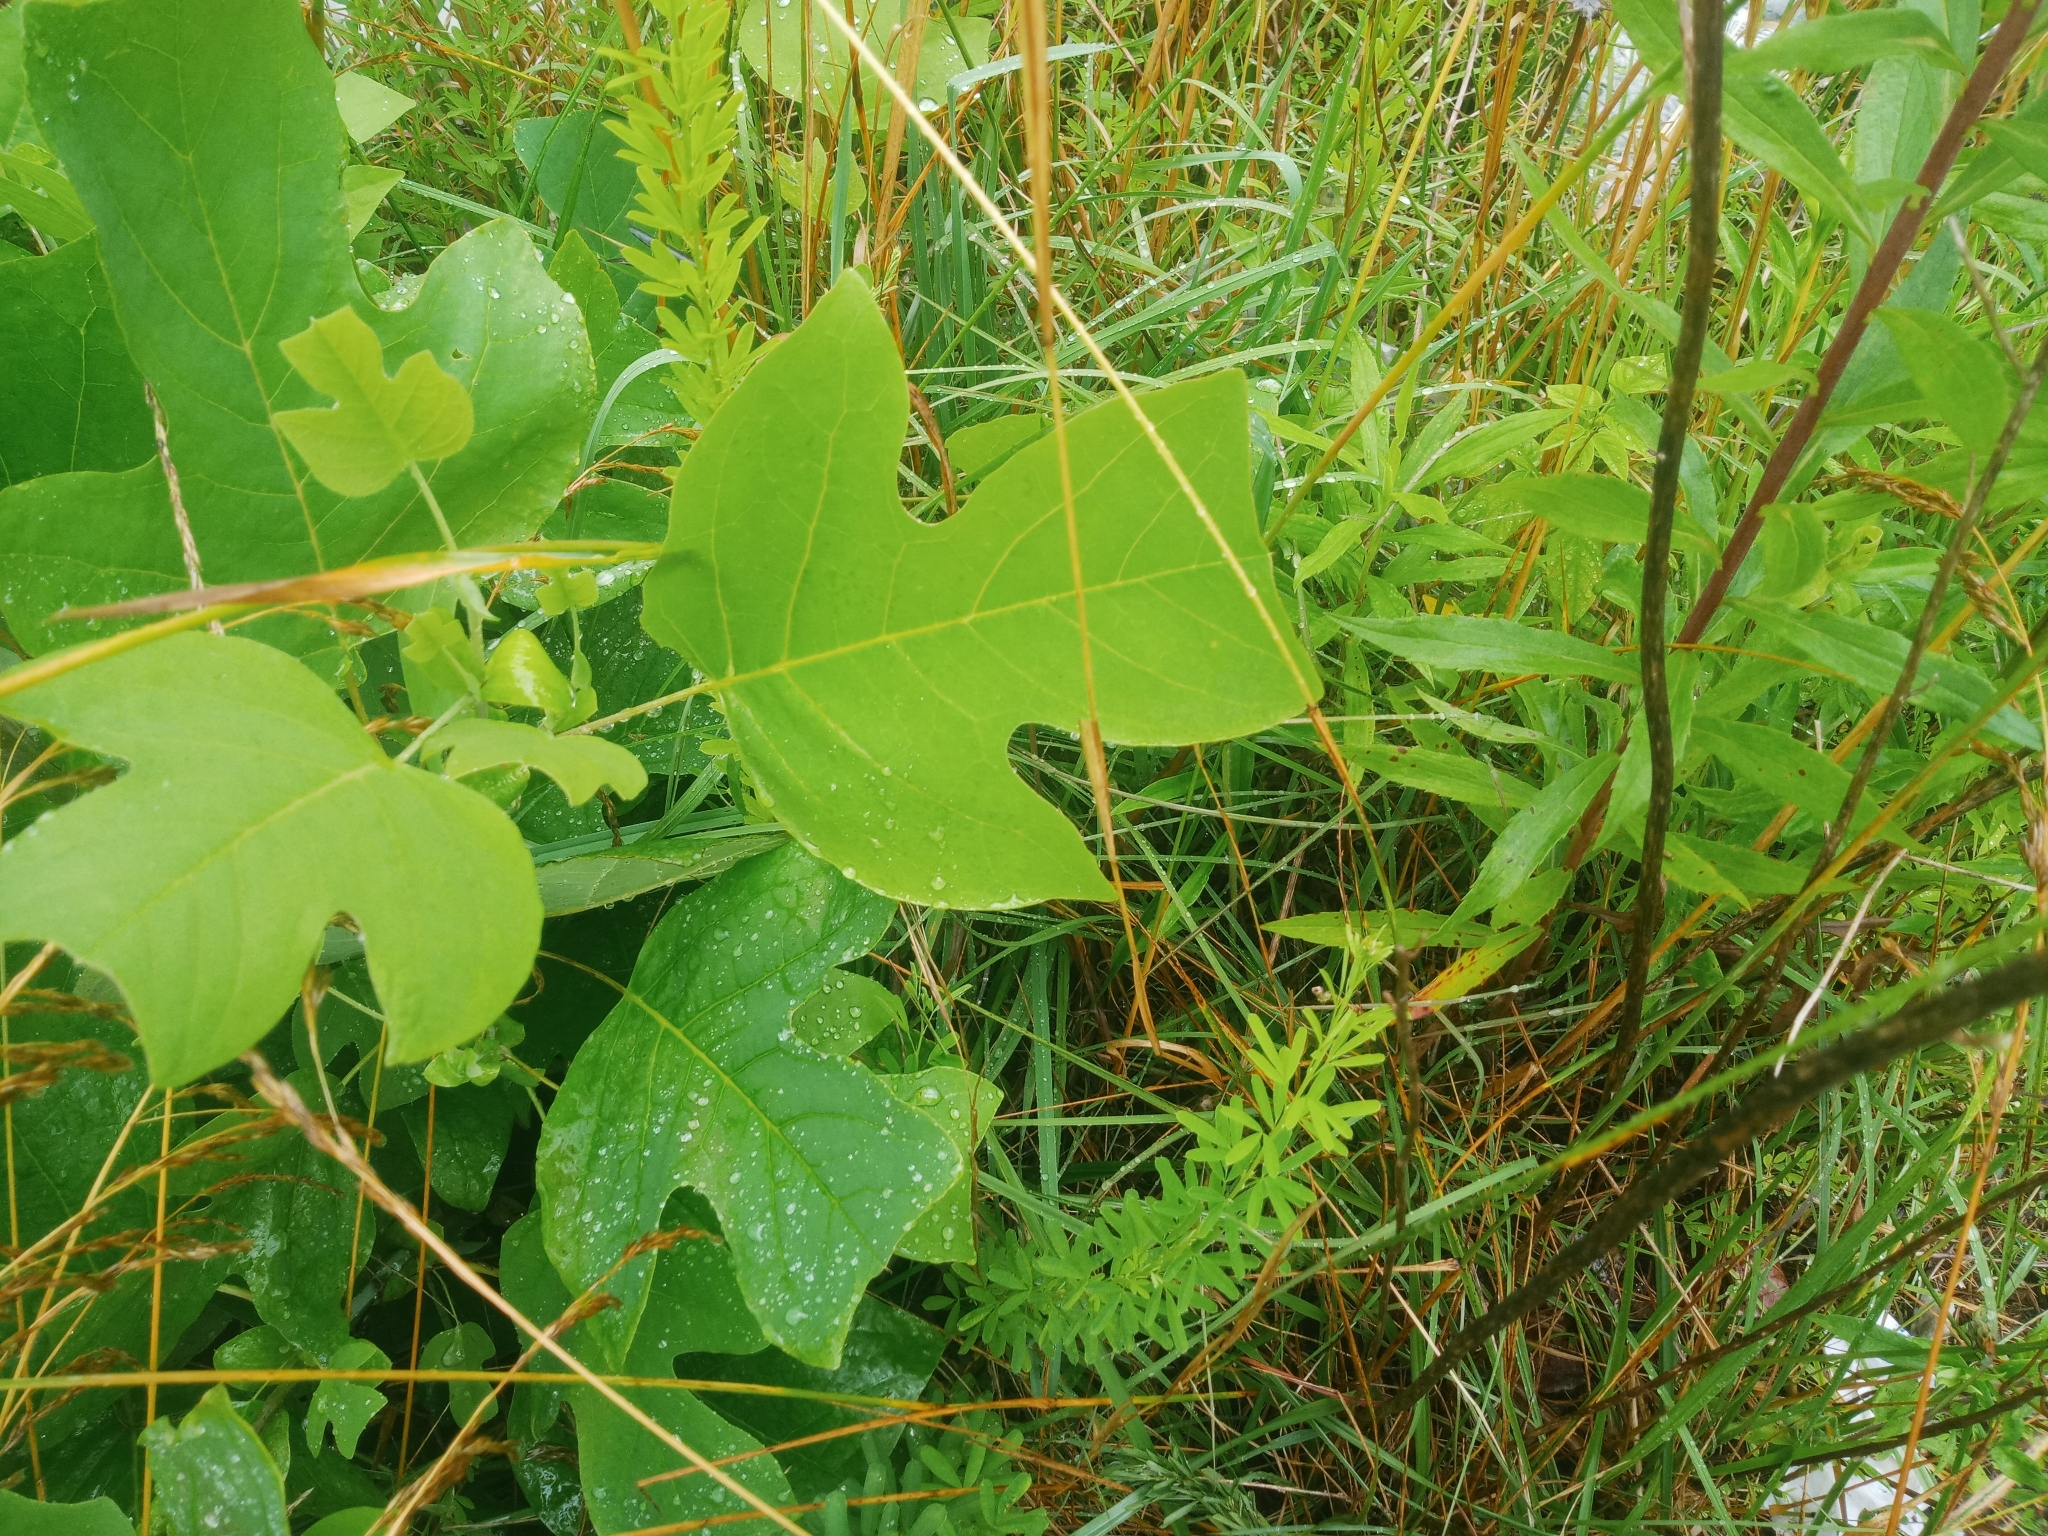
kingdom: Plantae
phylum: Tracheophyta
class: Magnoliopsida
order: Magnoliales
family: Magnoliaceae
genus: Liriodendron
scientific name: Liriodendron tulipifera
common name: Tulip tree
